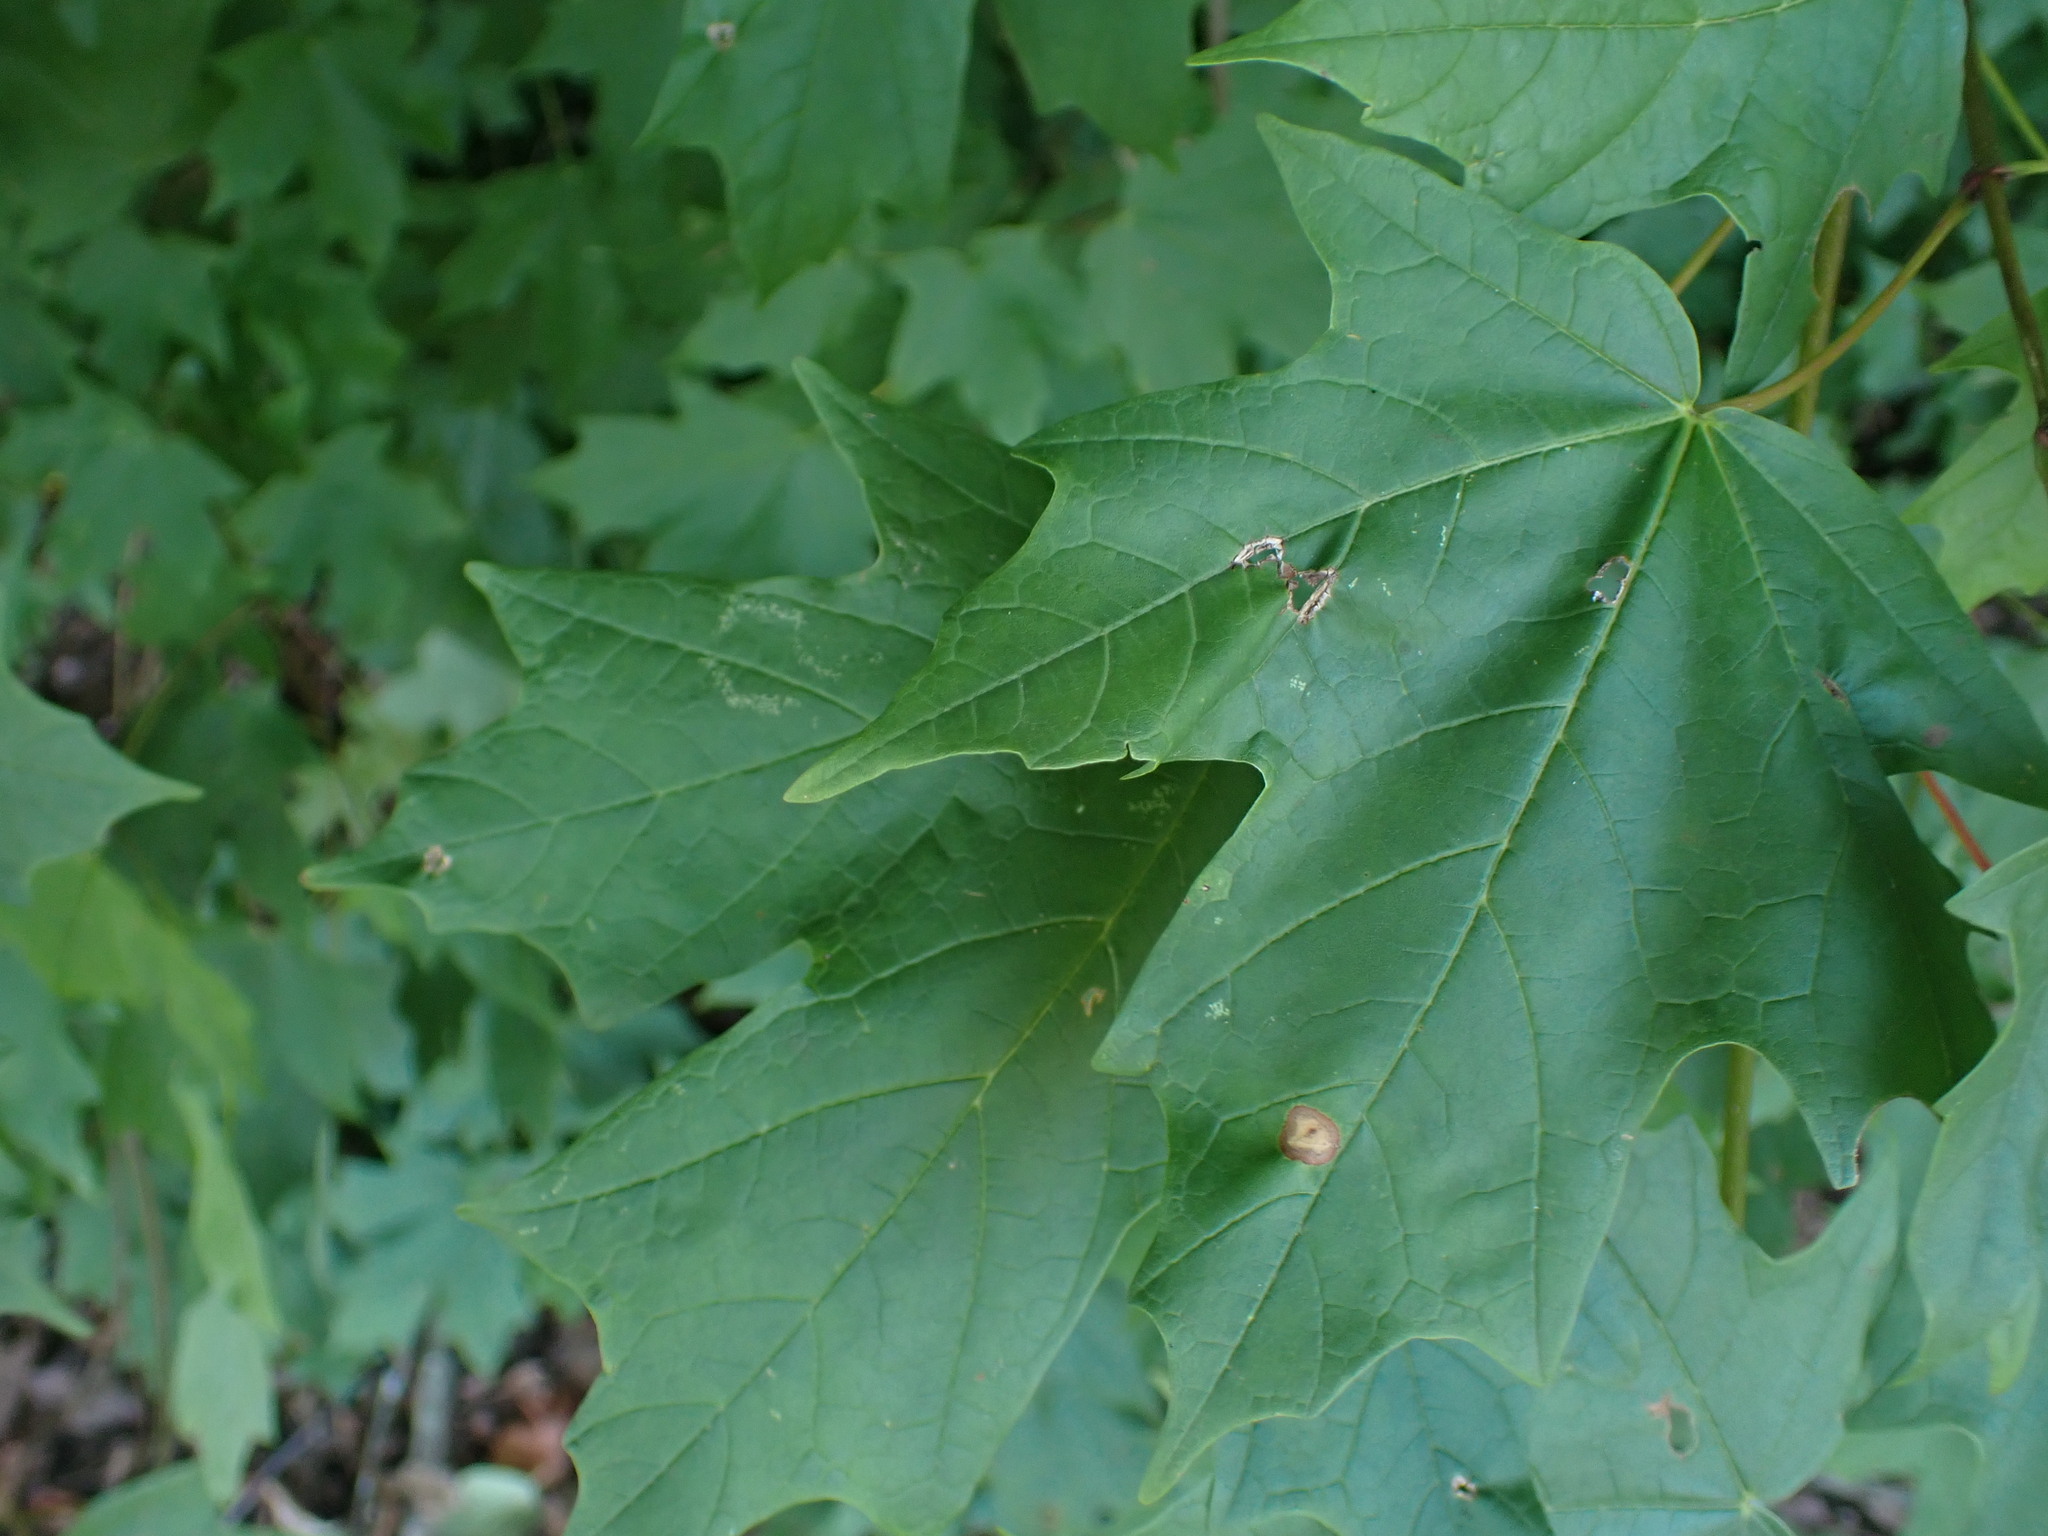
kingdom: Plantae
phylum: Tracheophyta
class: Magnoliopsida
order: Sapindales
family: Sapindaceae
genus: Acer
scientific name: Acer floridanum
